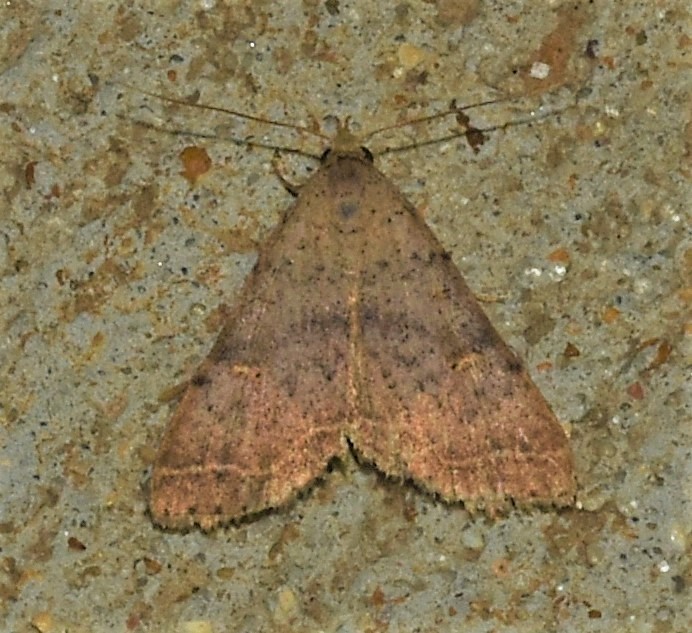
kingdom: Animalia
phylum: Arthropoda
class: Insecta
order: Lepidoptera
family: Erebidae
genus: Renia
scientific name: Renia salusalis
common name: Dotted renia moth
